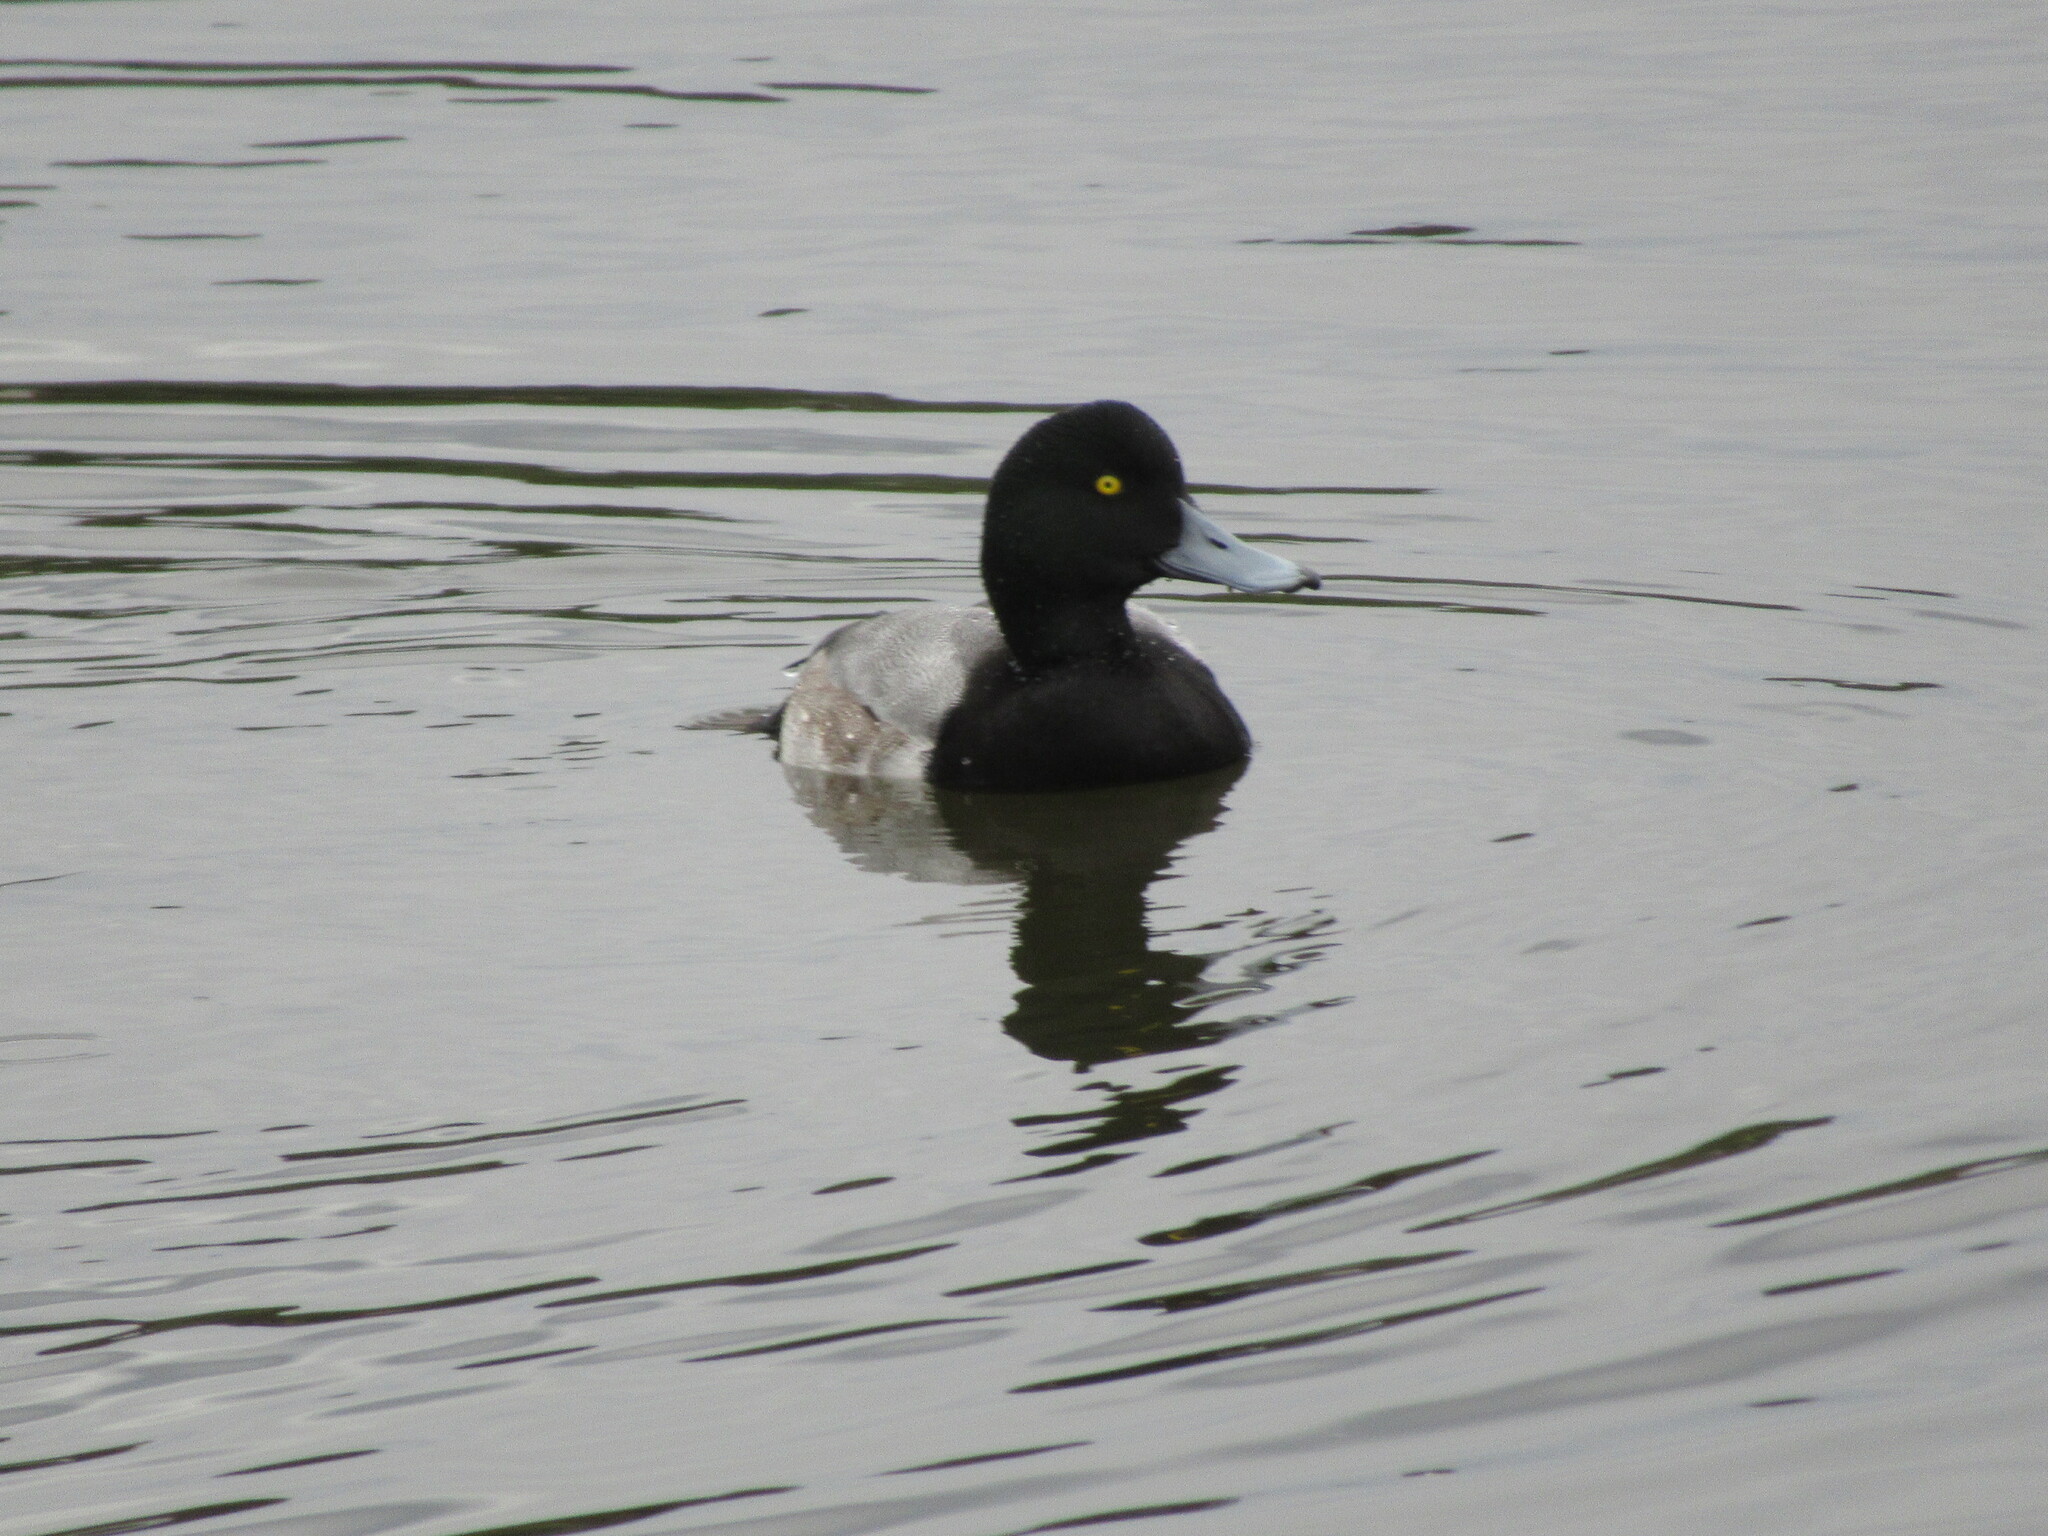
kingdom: Animalia
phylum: Chordata
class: Aves
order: Anseriformes
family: Anatidae
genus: Aythya
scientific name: Aythya marila
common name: Greater scaup
